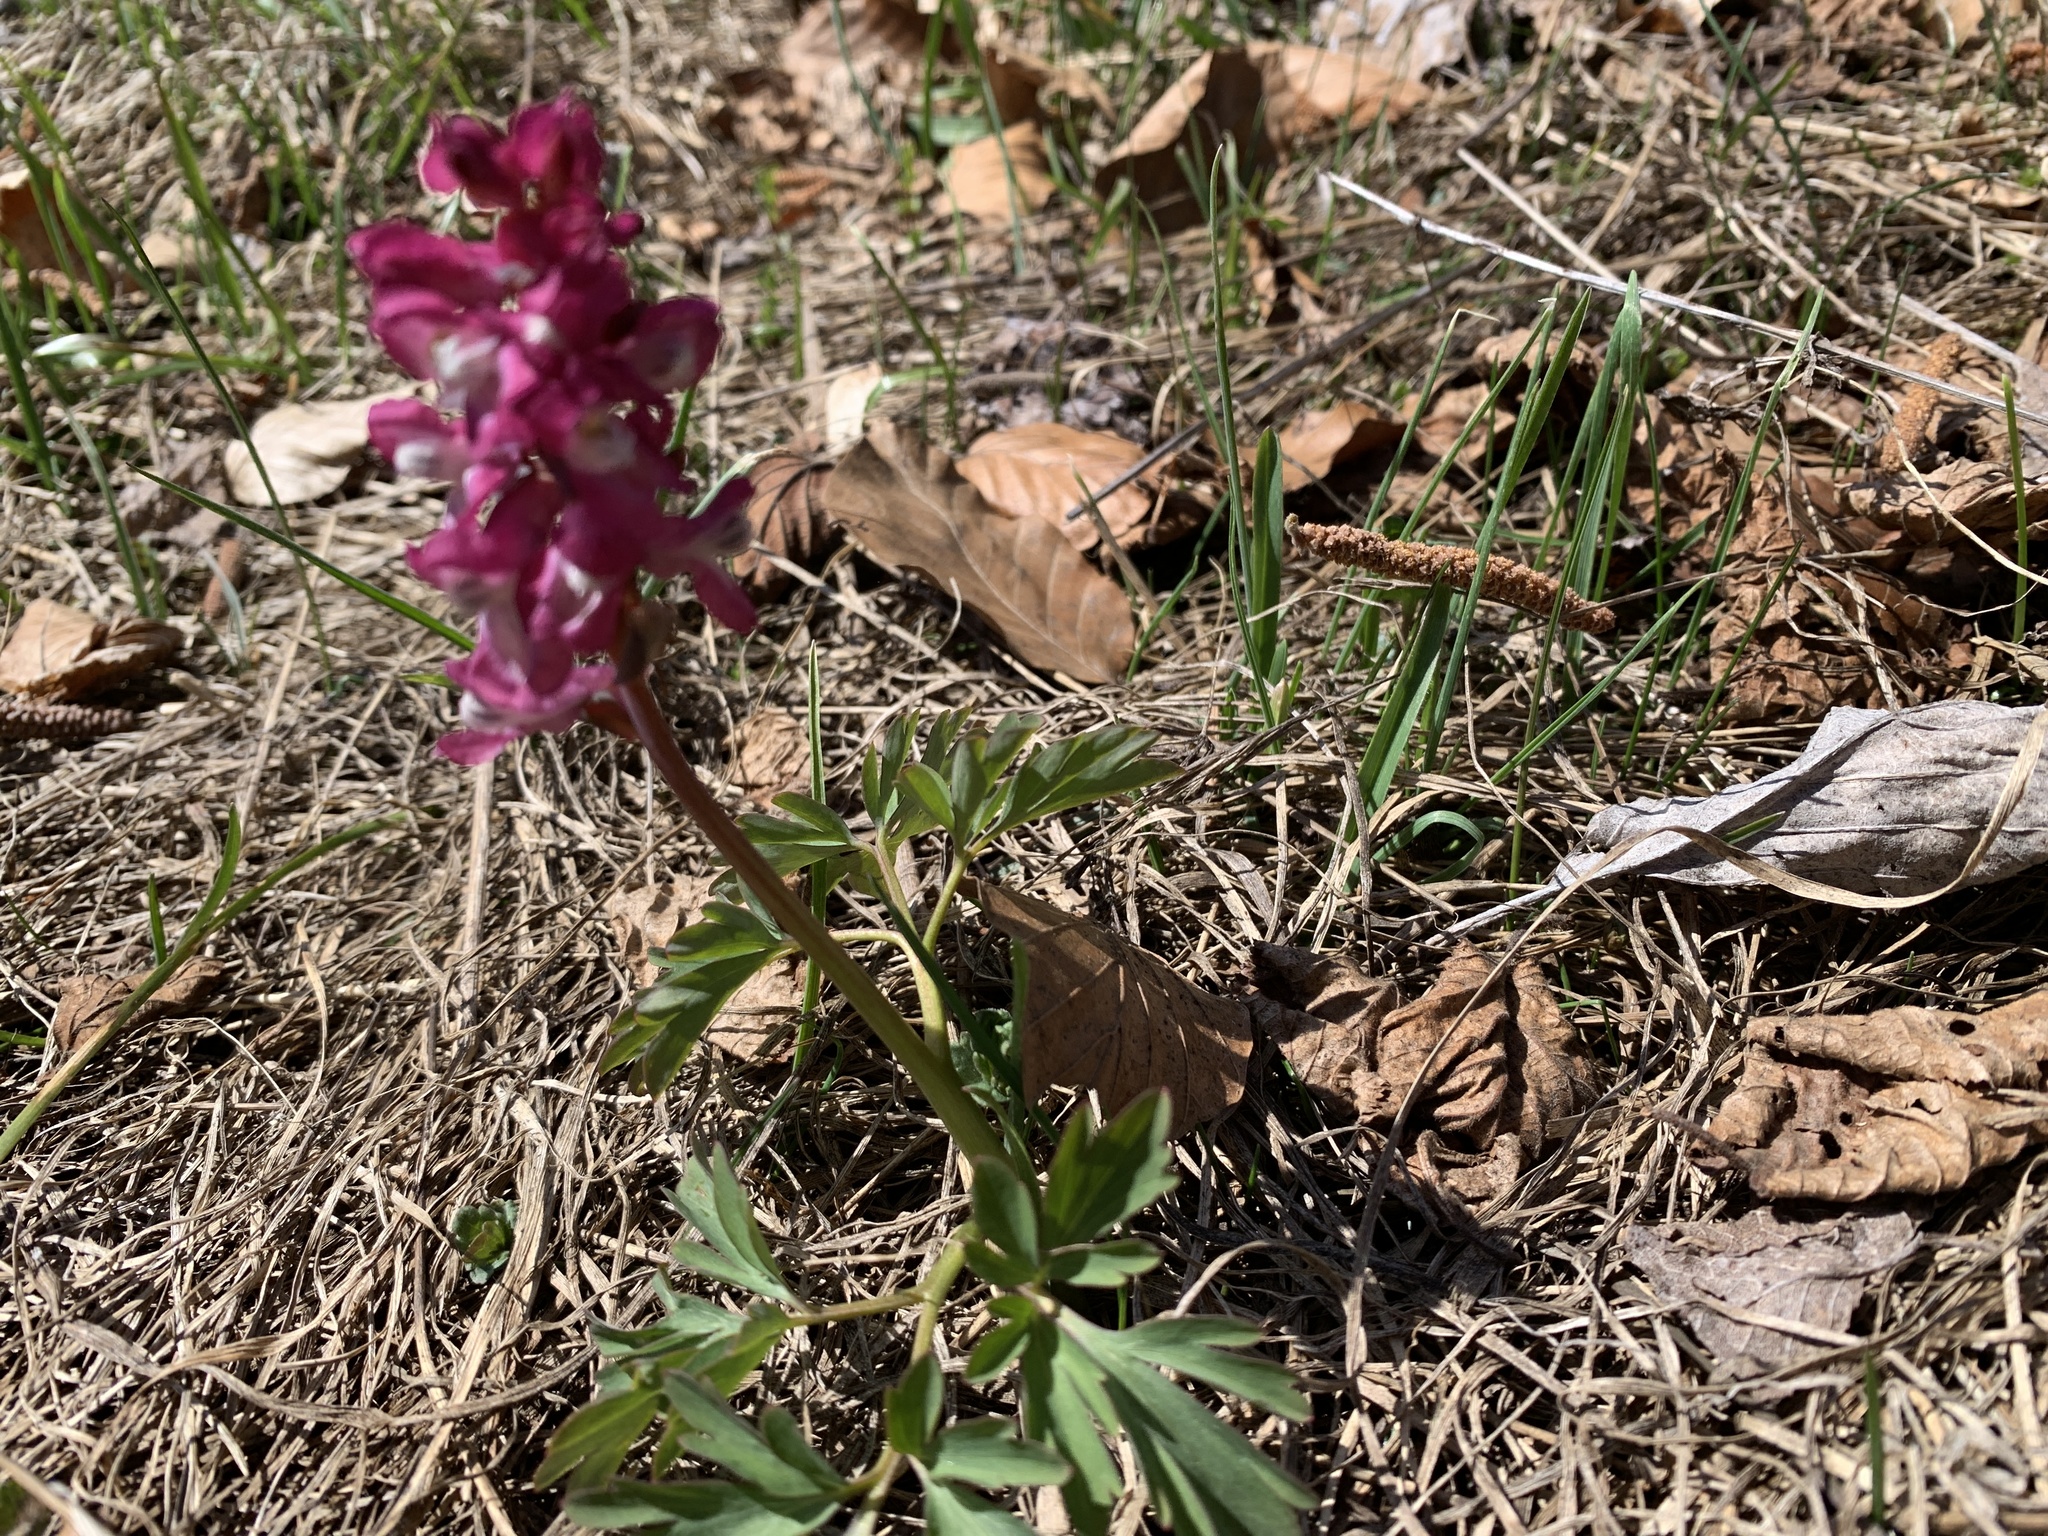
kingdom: Plantae
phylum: Tracheophyta
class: Magnoliopsida
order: Ranunculales
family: Papaveraceae
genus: Corydalis
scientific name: Corydalis cava
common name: Hollowroot
